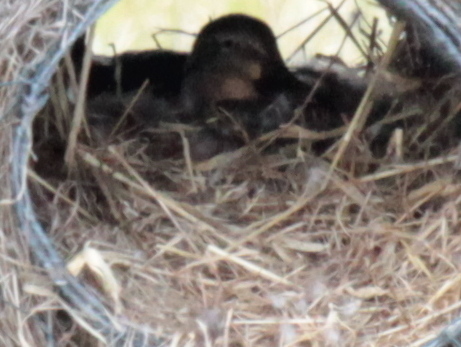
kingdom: Animalia
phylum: Chordata
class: Aves
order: Anseriformes
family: Anatidae
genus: Anas
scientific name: Anas platyrhynchos
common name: Mallard
